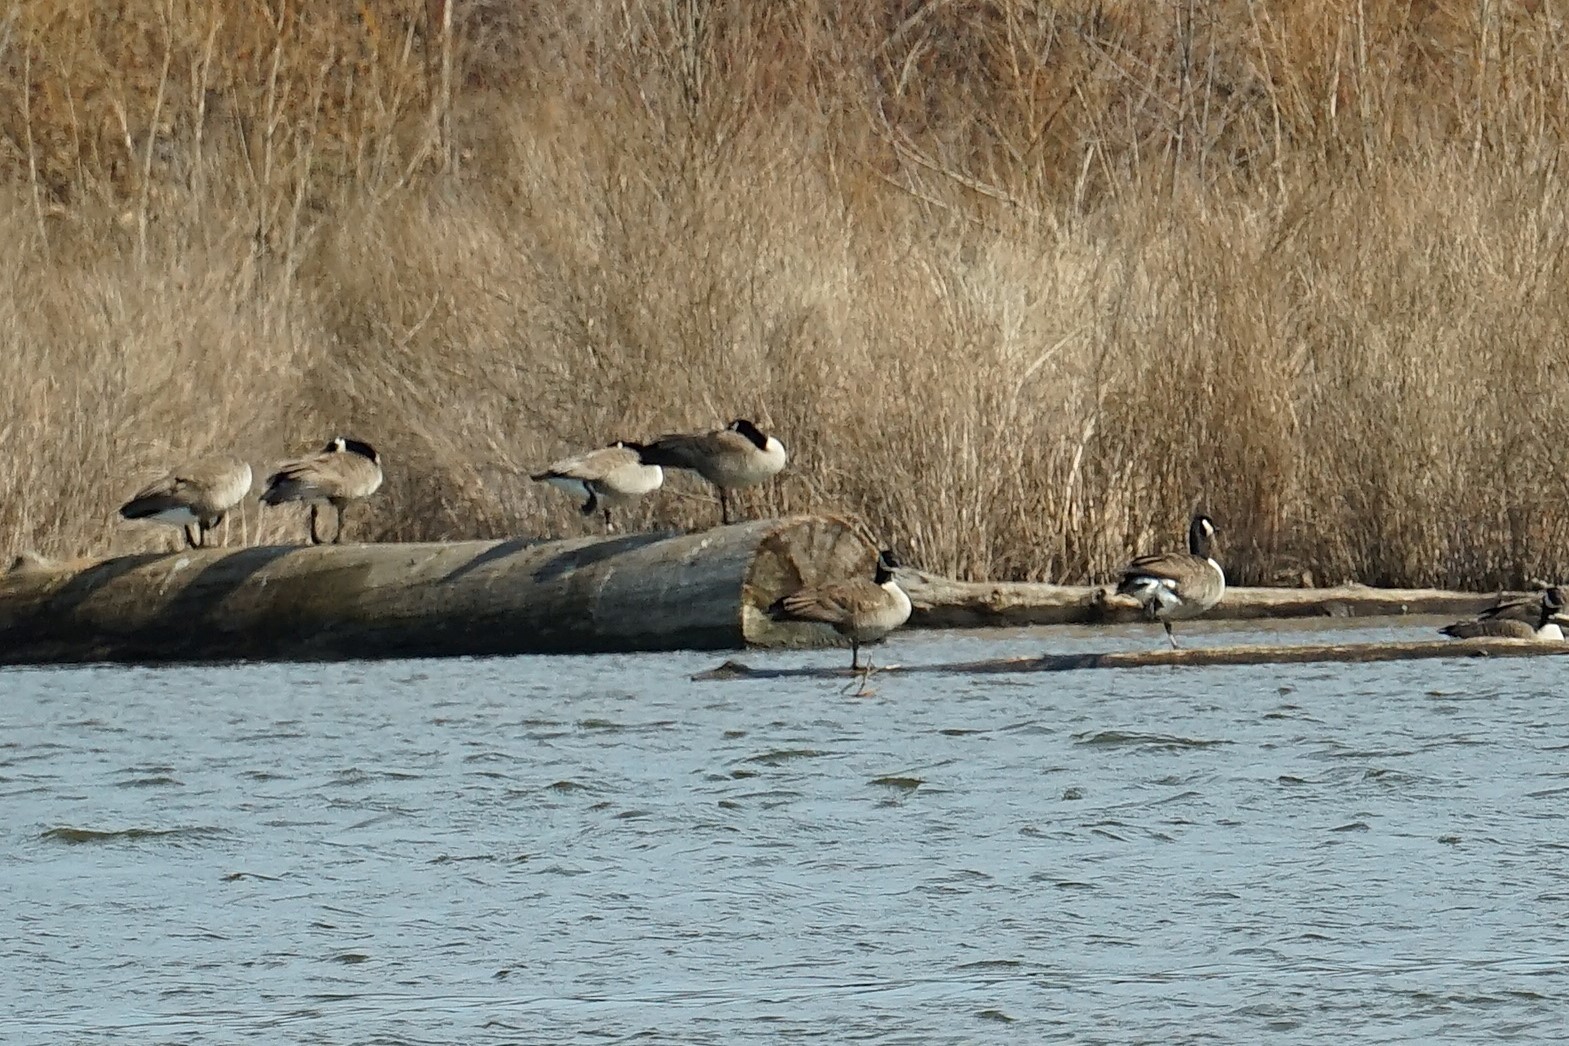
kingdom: Animalia
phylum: Chordata
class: Aves
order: Anseriformes
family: Anatidae
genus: Branta
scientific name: Branta canadensis
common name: Canada goose
